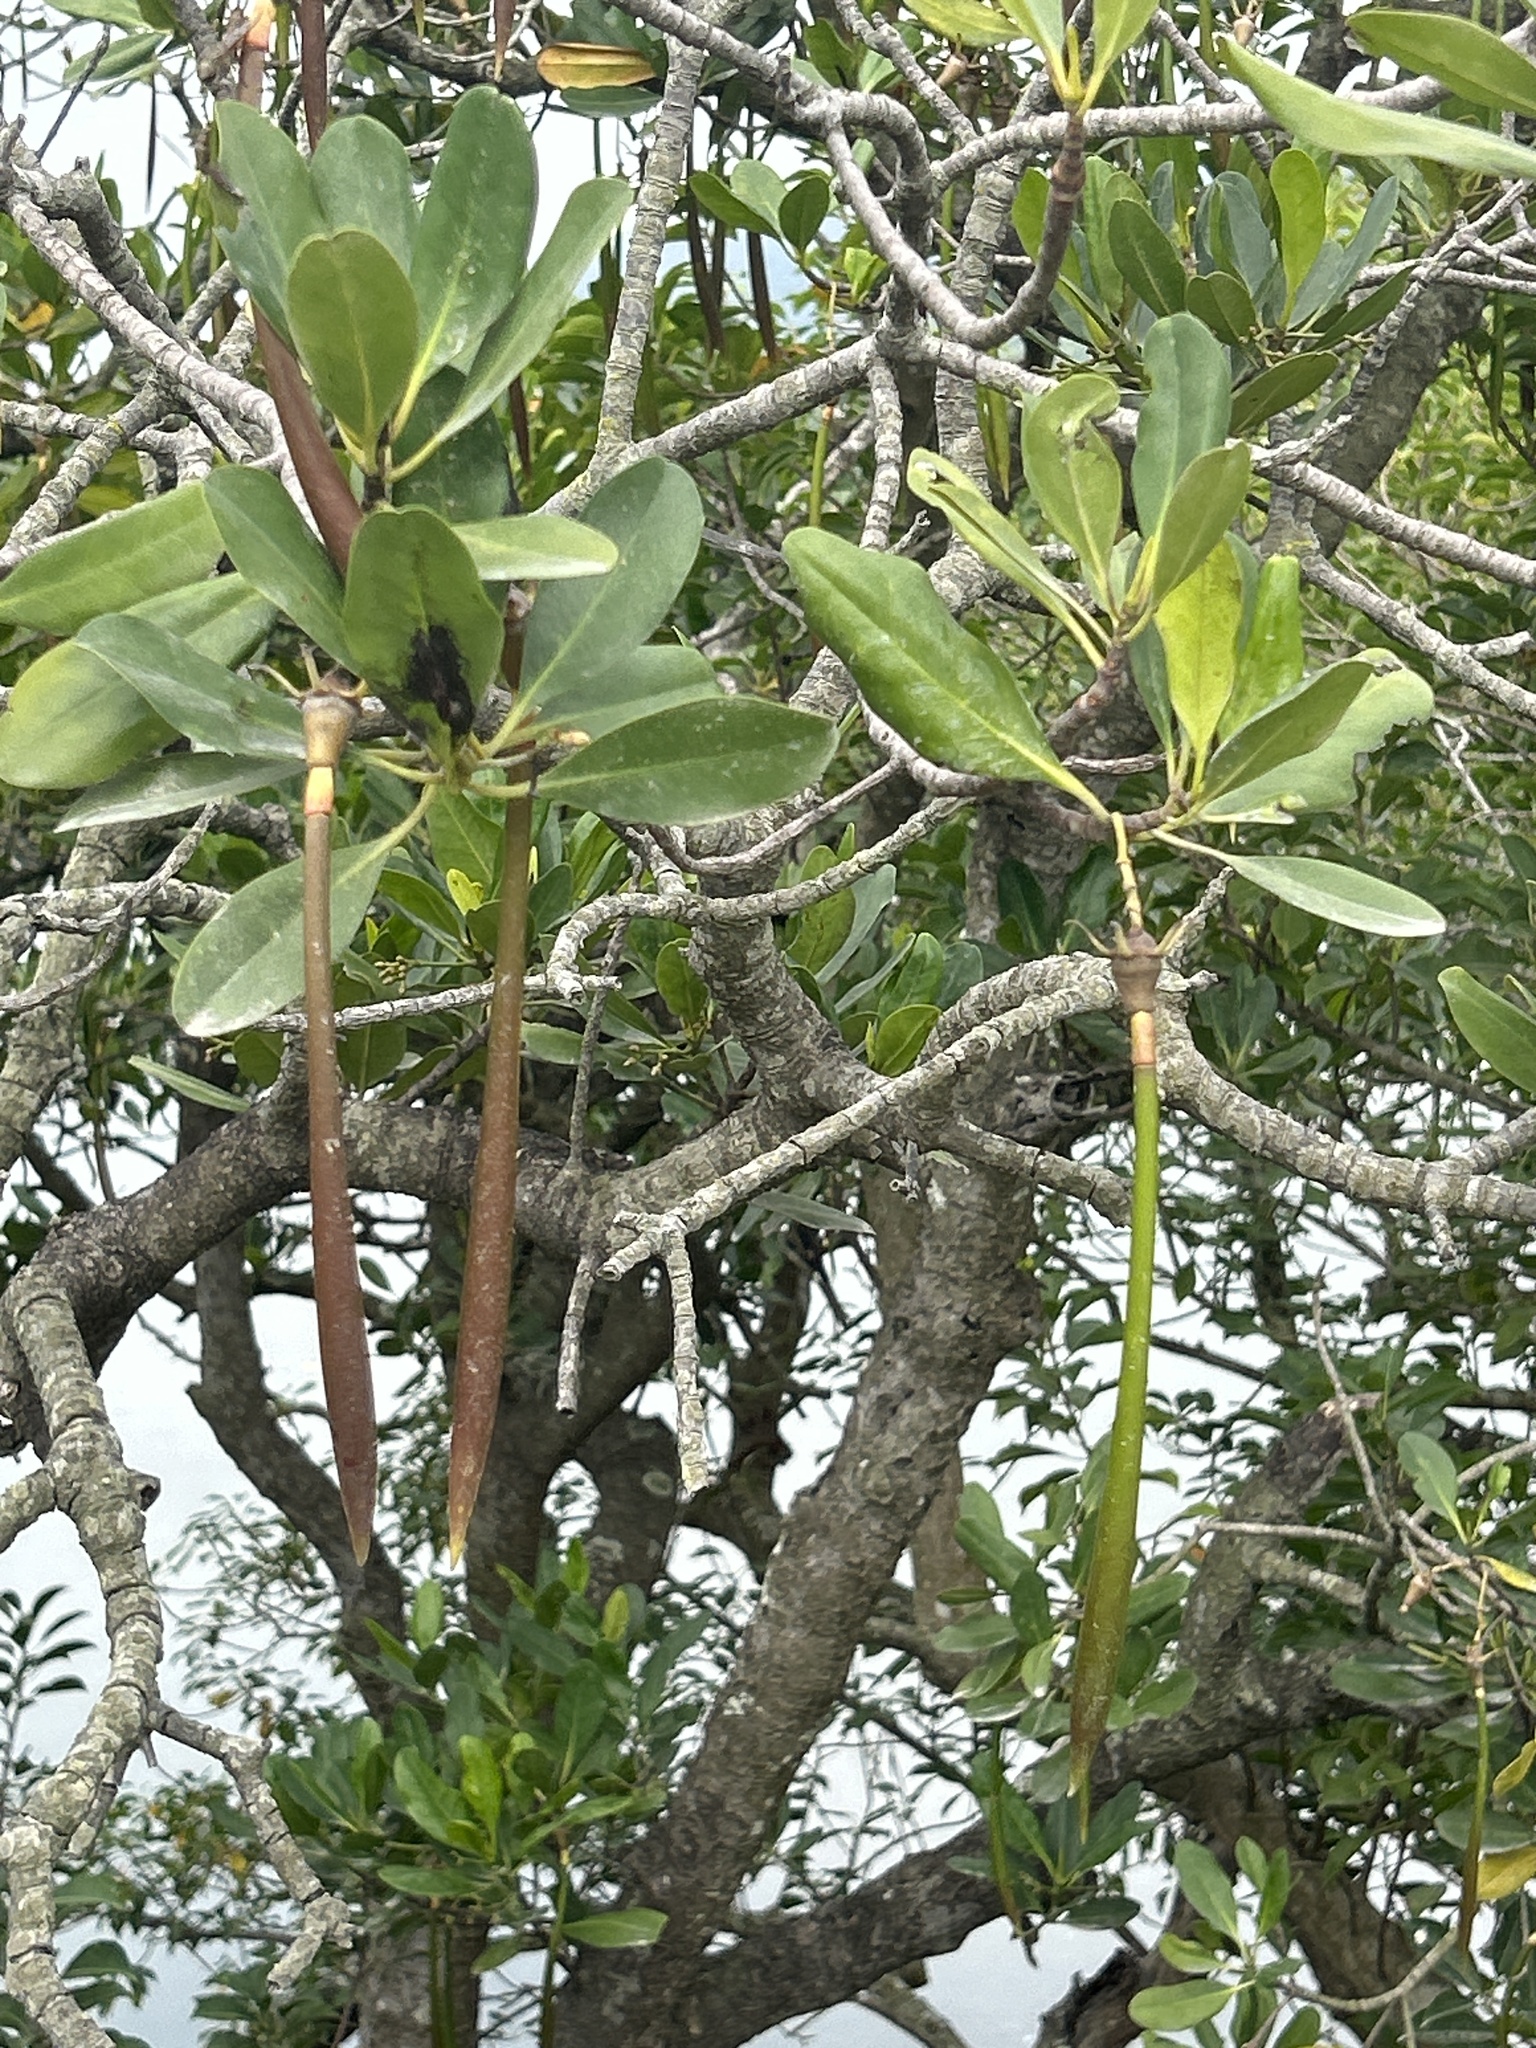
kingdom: Plantae
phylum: Tracheophyta
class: Magnoliopsida
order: Malpighiales
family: Rhizophoraceae
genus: Kandelia
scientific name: Kandelia obovata
